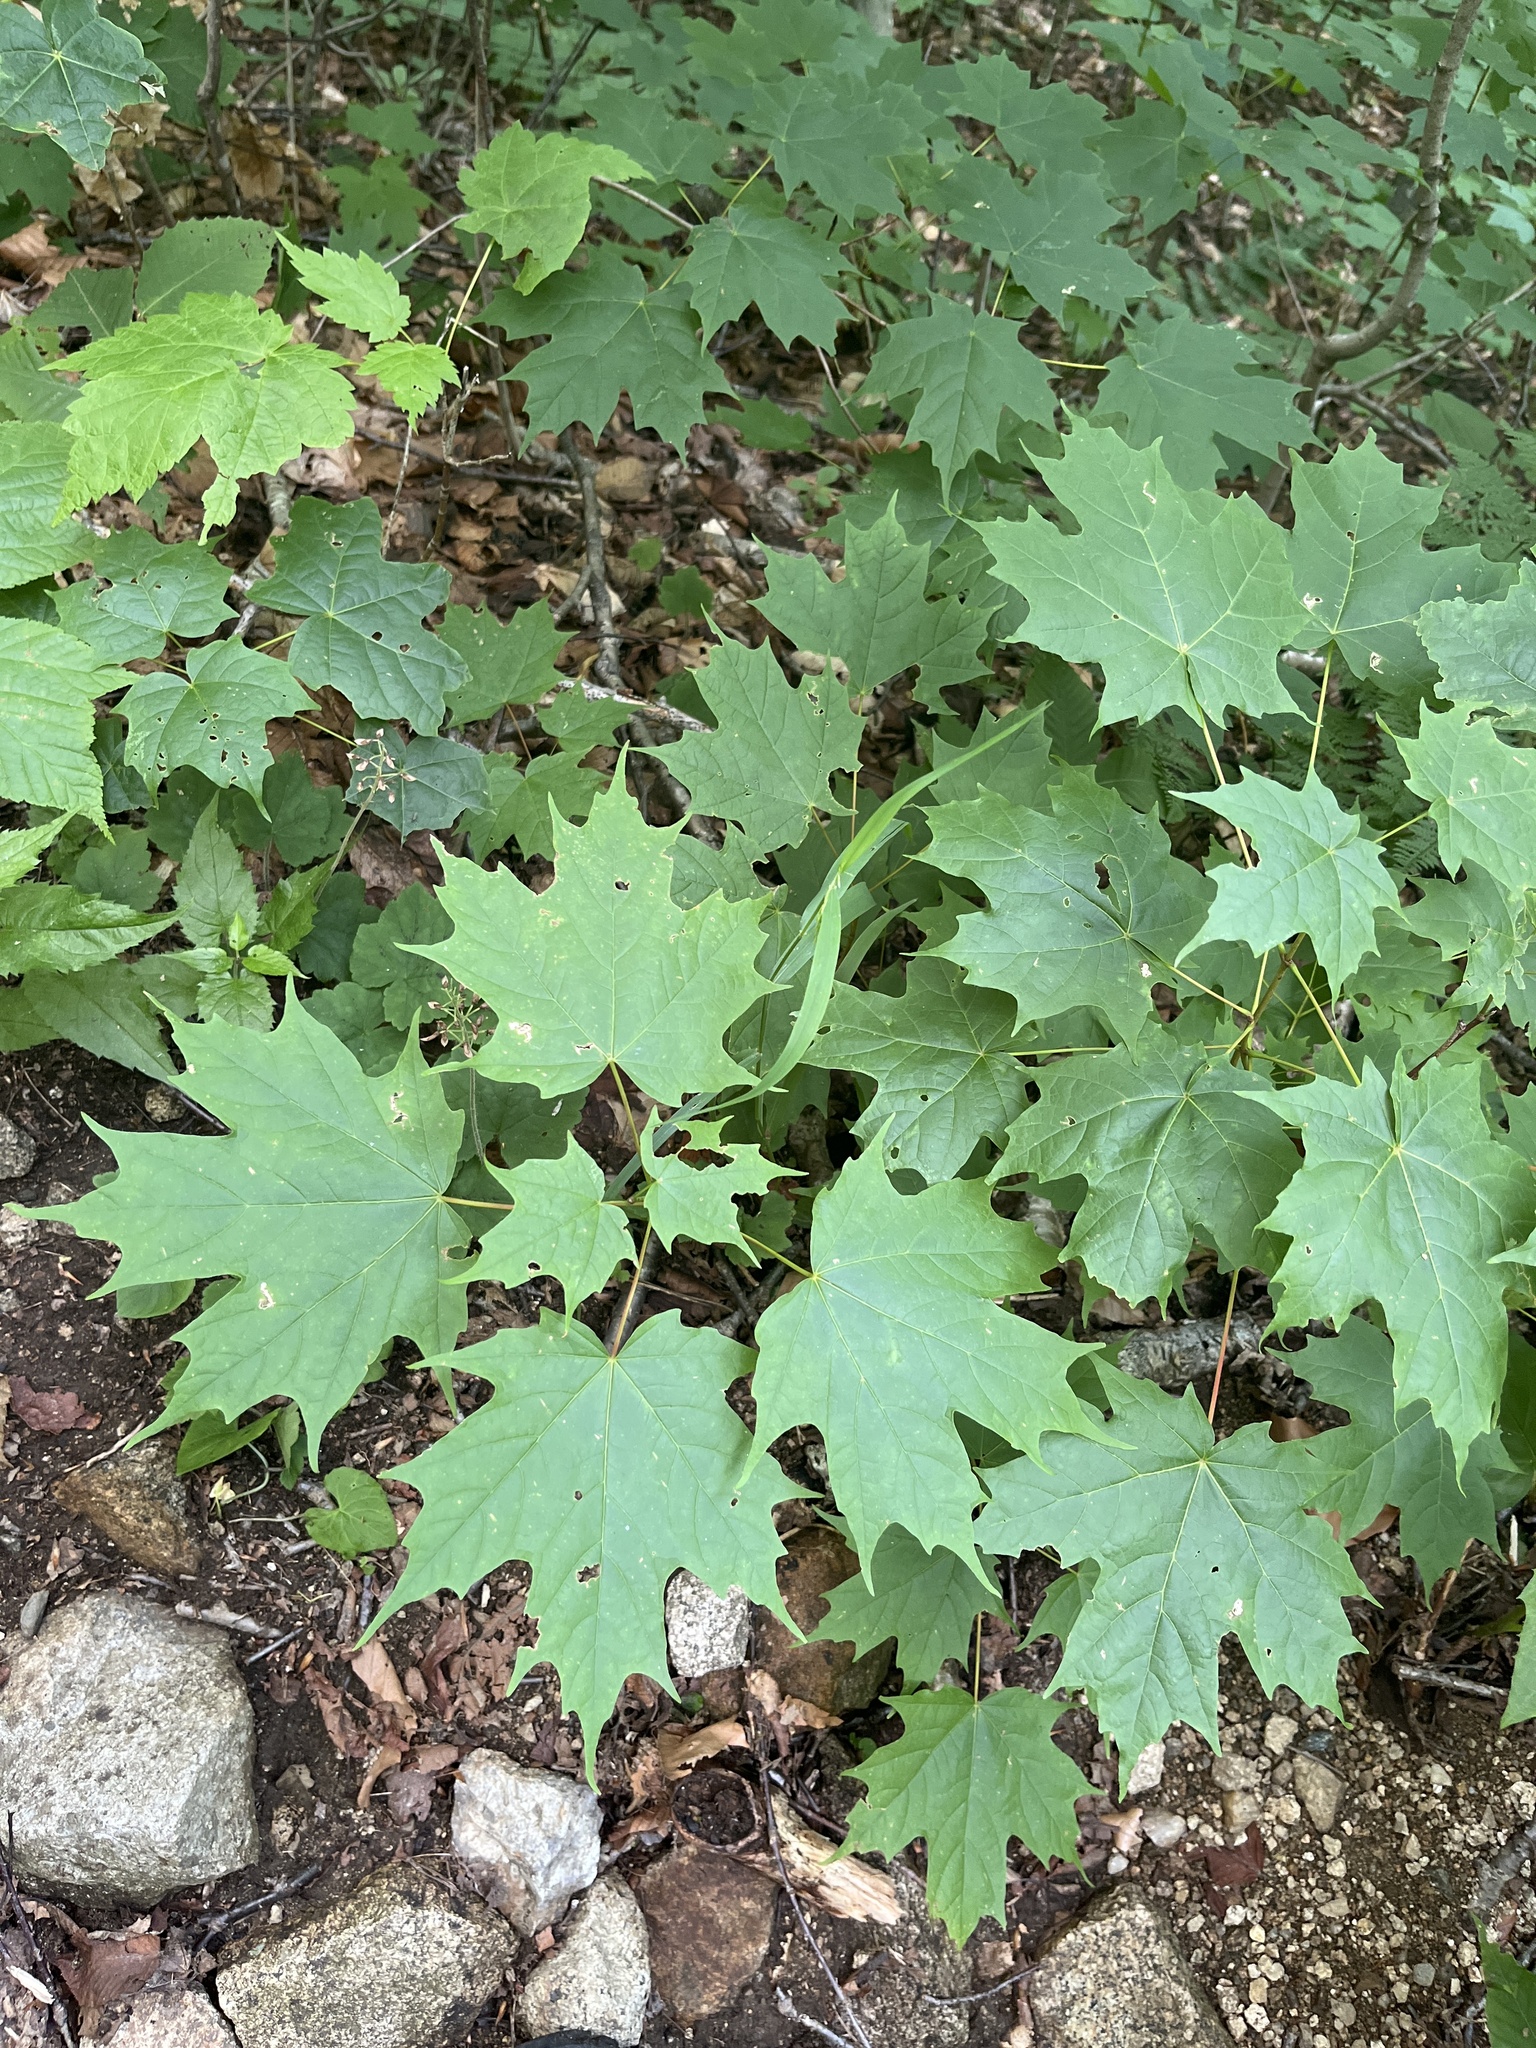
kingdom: Plantae
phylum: Tracheophyta
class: Magnoliopsida
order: Sapindales
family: Sapindaceae
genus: Acer
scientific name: Acer saccharum
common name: Sugar maple
